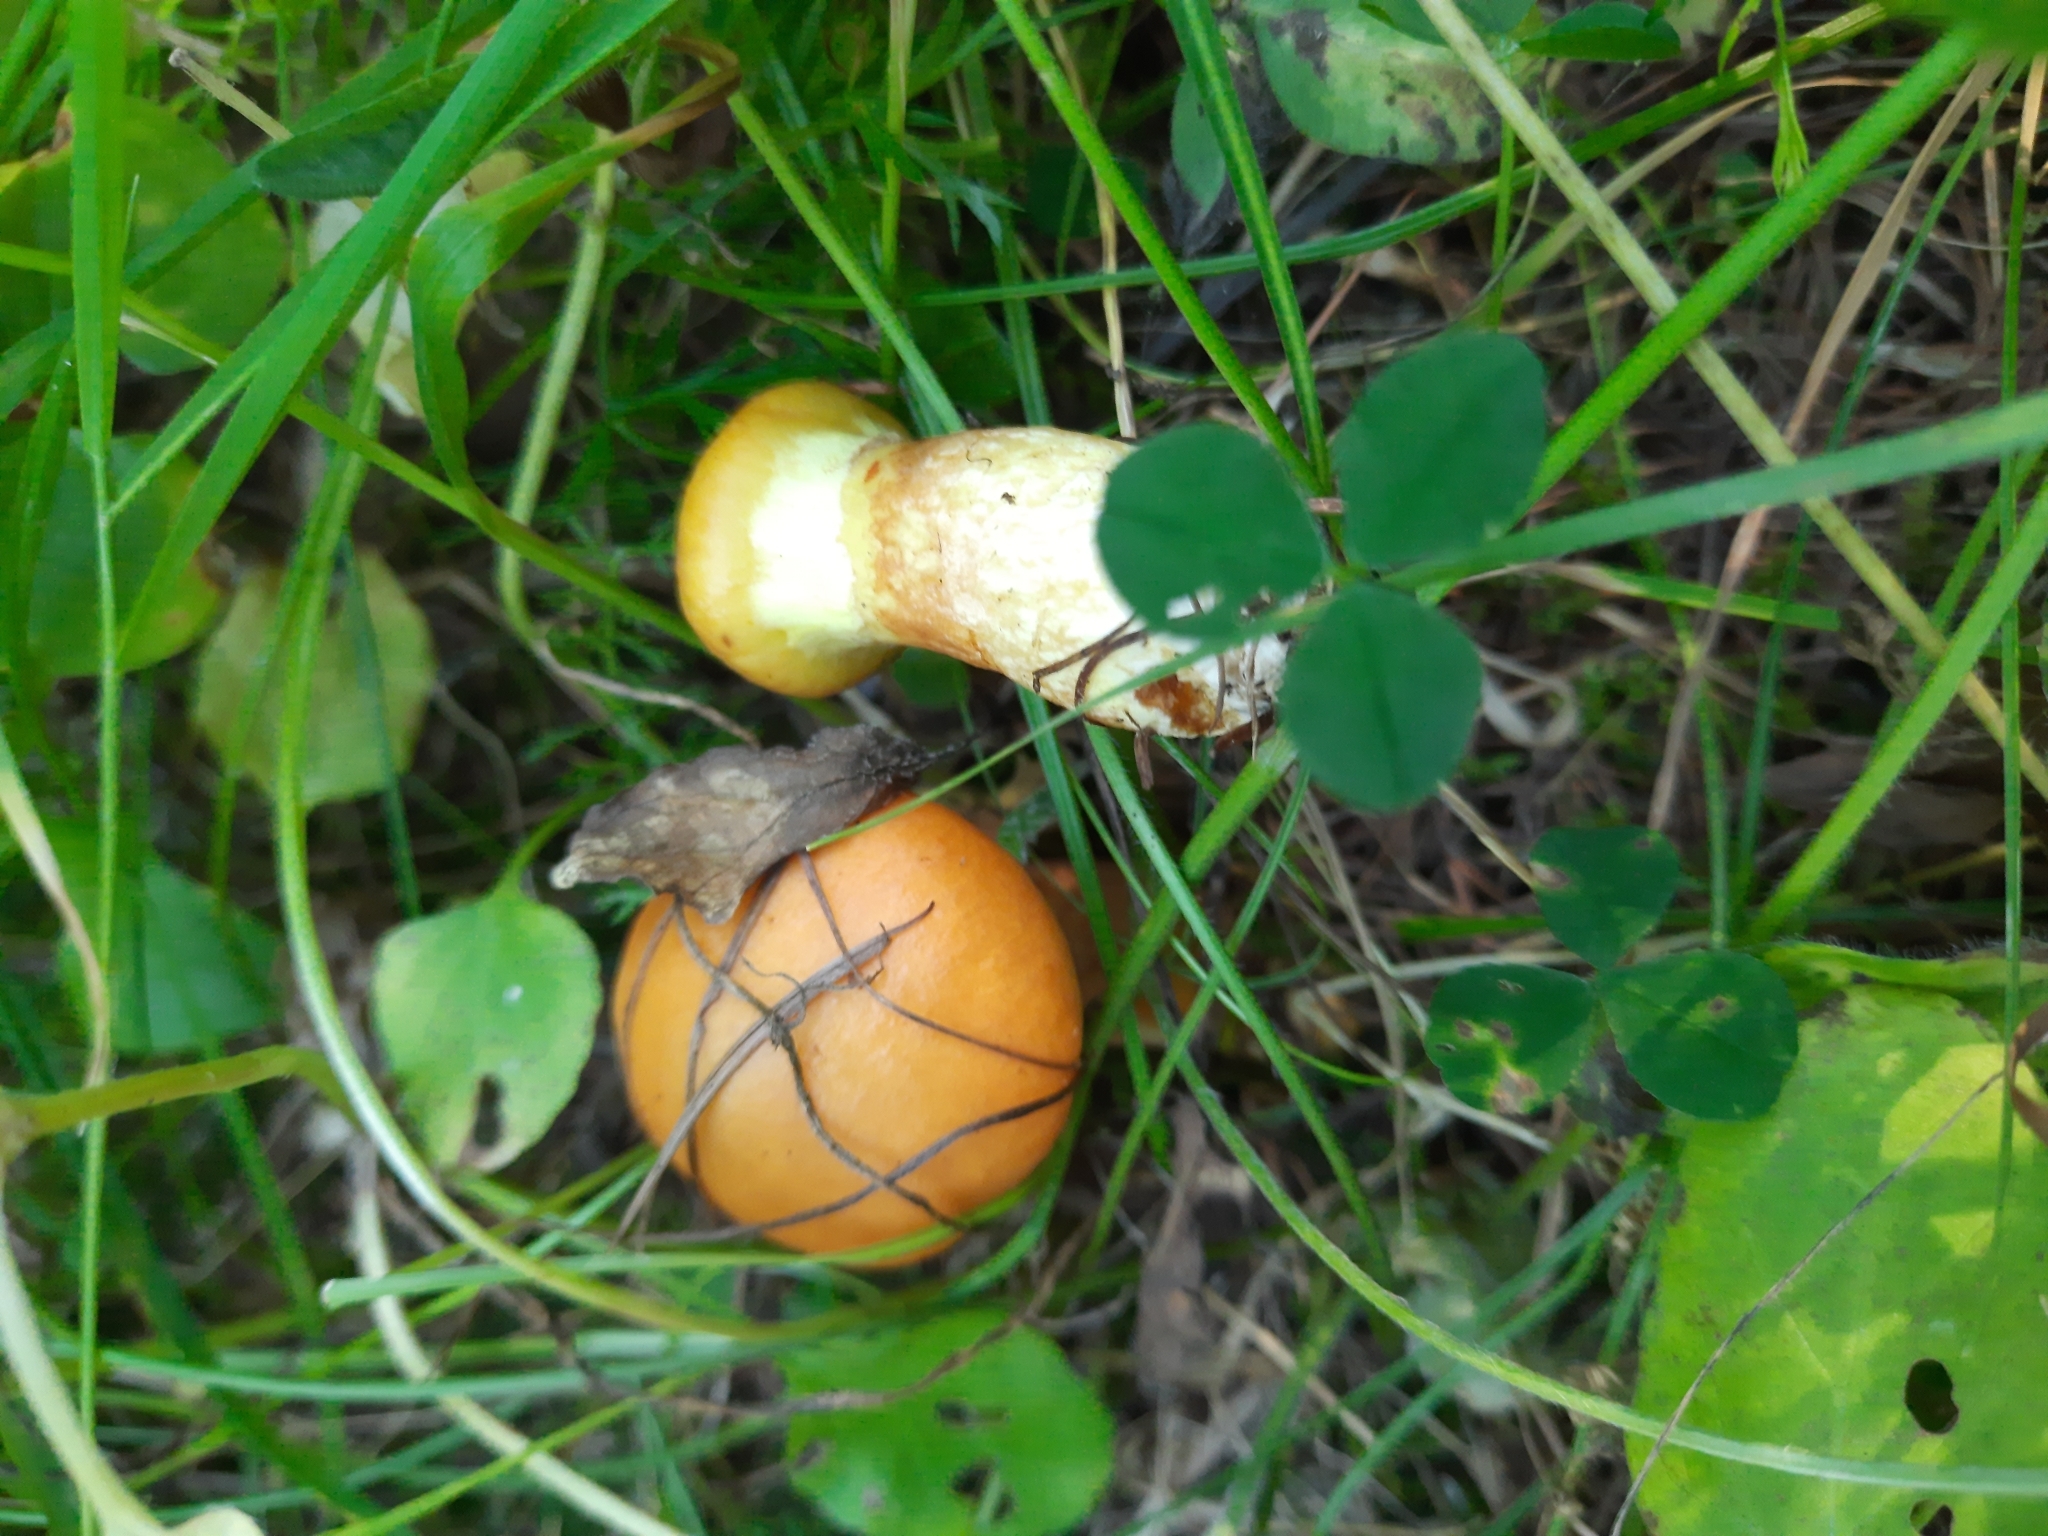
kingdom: Fungi
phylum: Basidiomycota
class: Agaricomycetes
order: Boletales
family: Suillaceae
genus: Suillus
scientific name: Suillus grevillei
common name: Larch bolete
